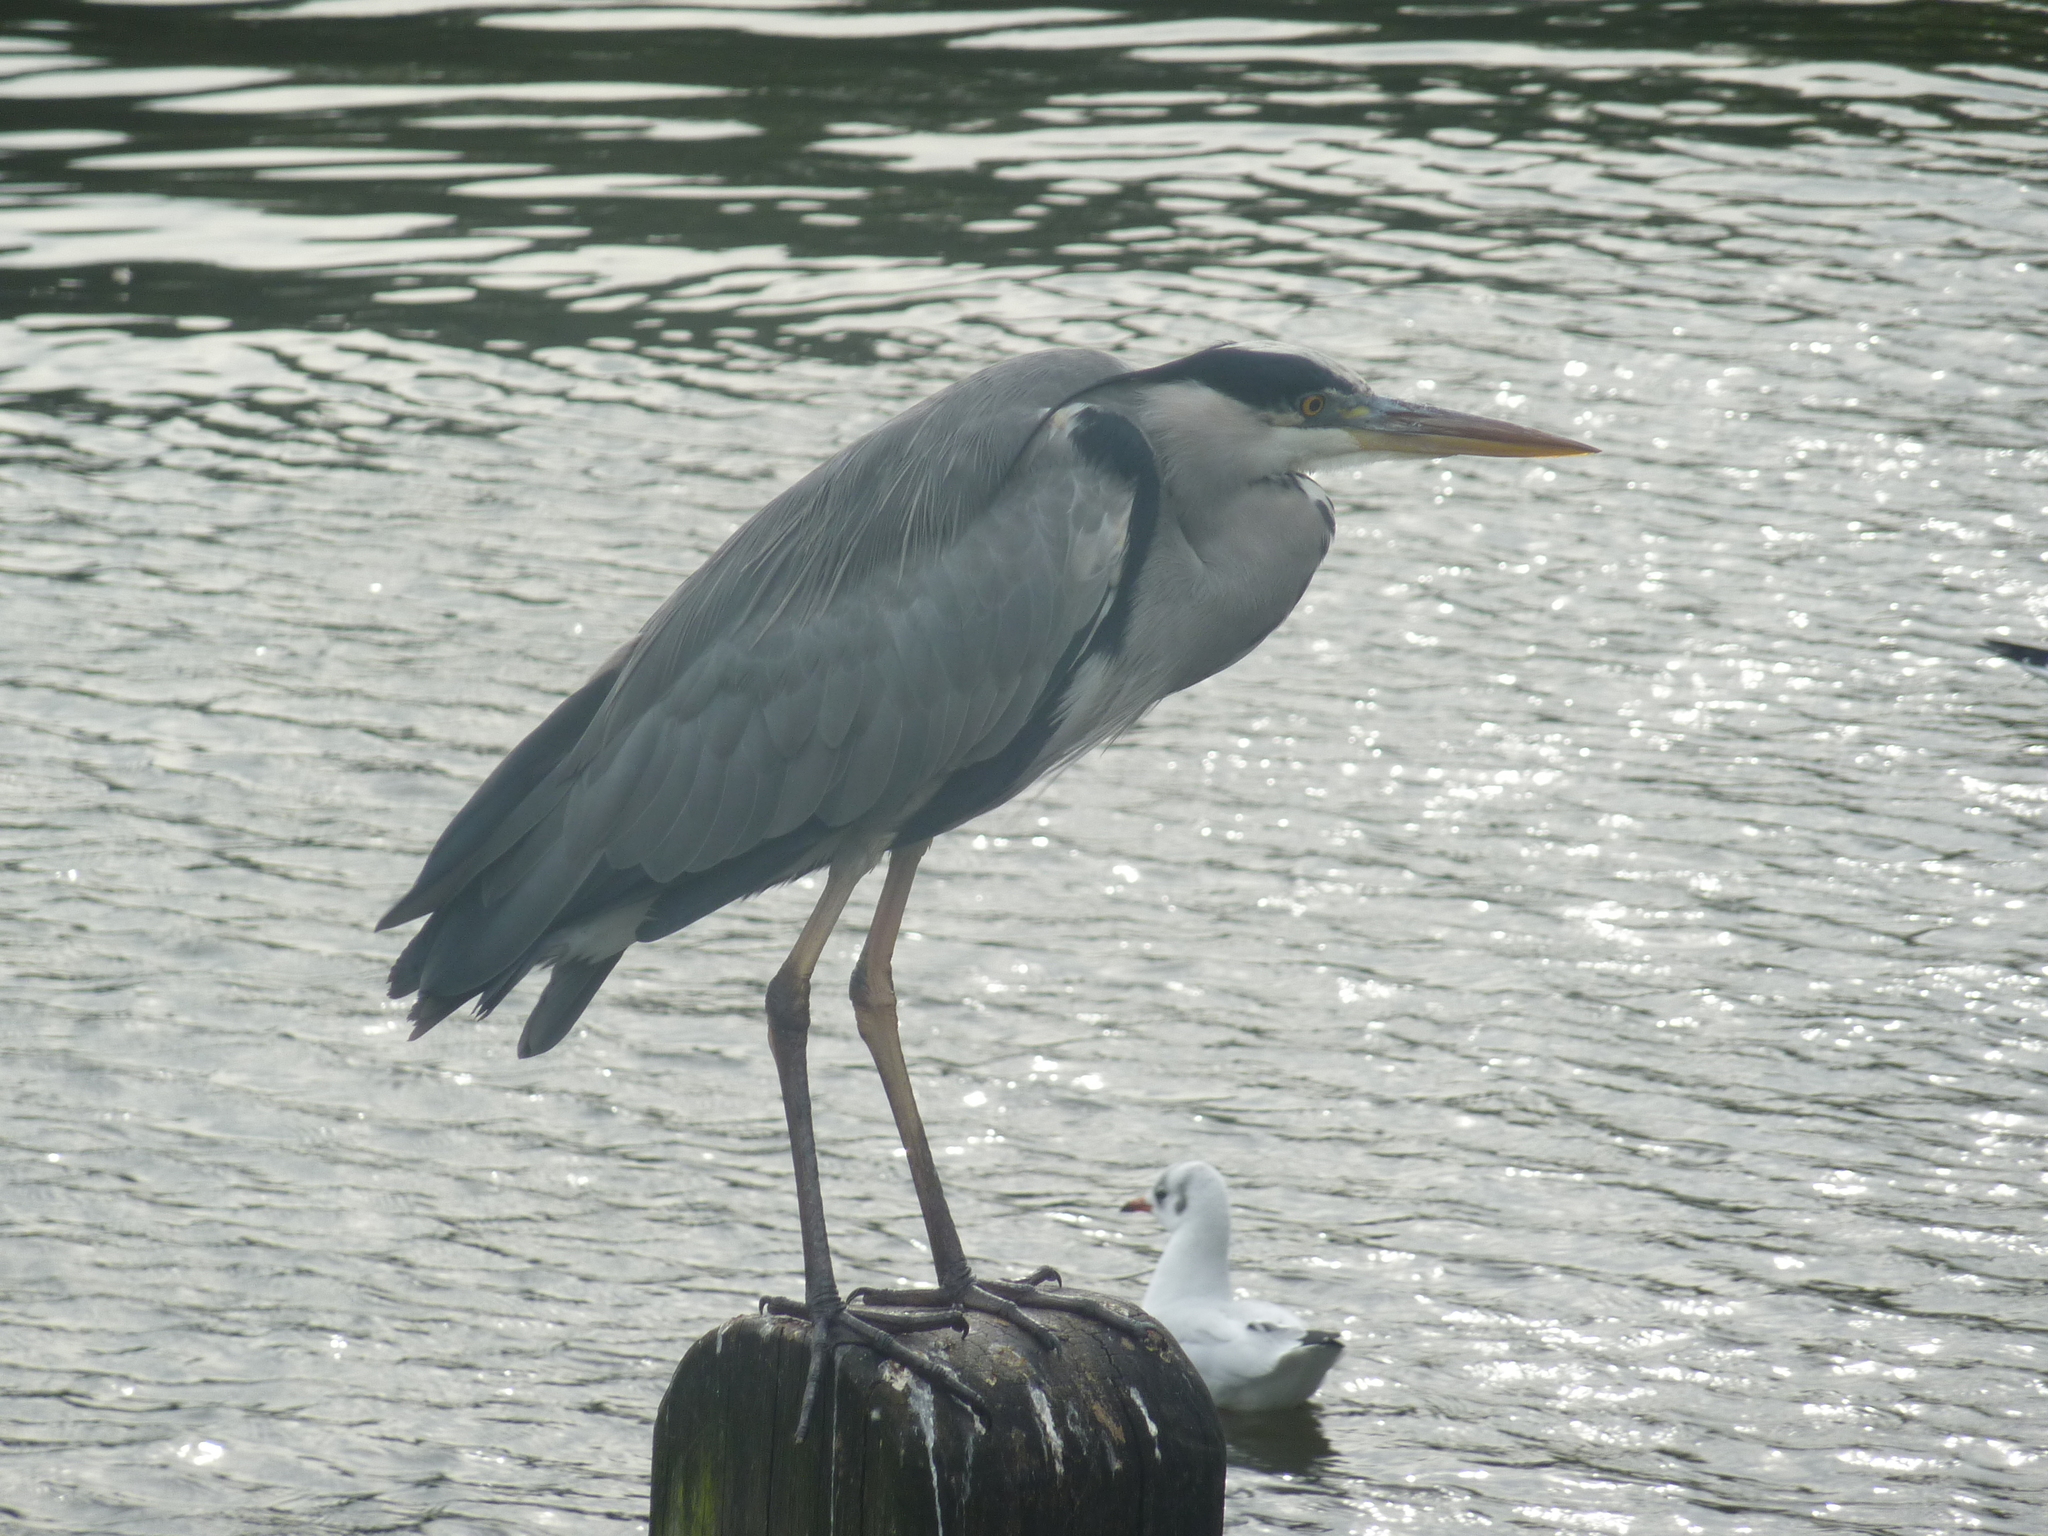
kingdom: Animalia
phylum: Chordata
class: Aves
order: Pelecaniformes
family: Ardeidae
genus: Ardea
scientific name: Ardea cinerea
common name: Grey heron
